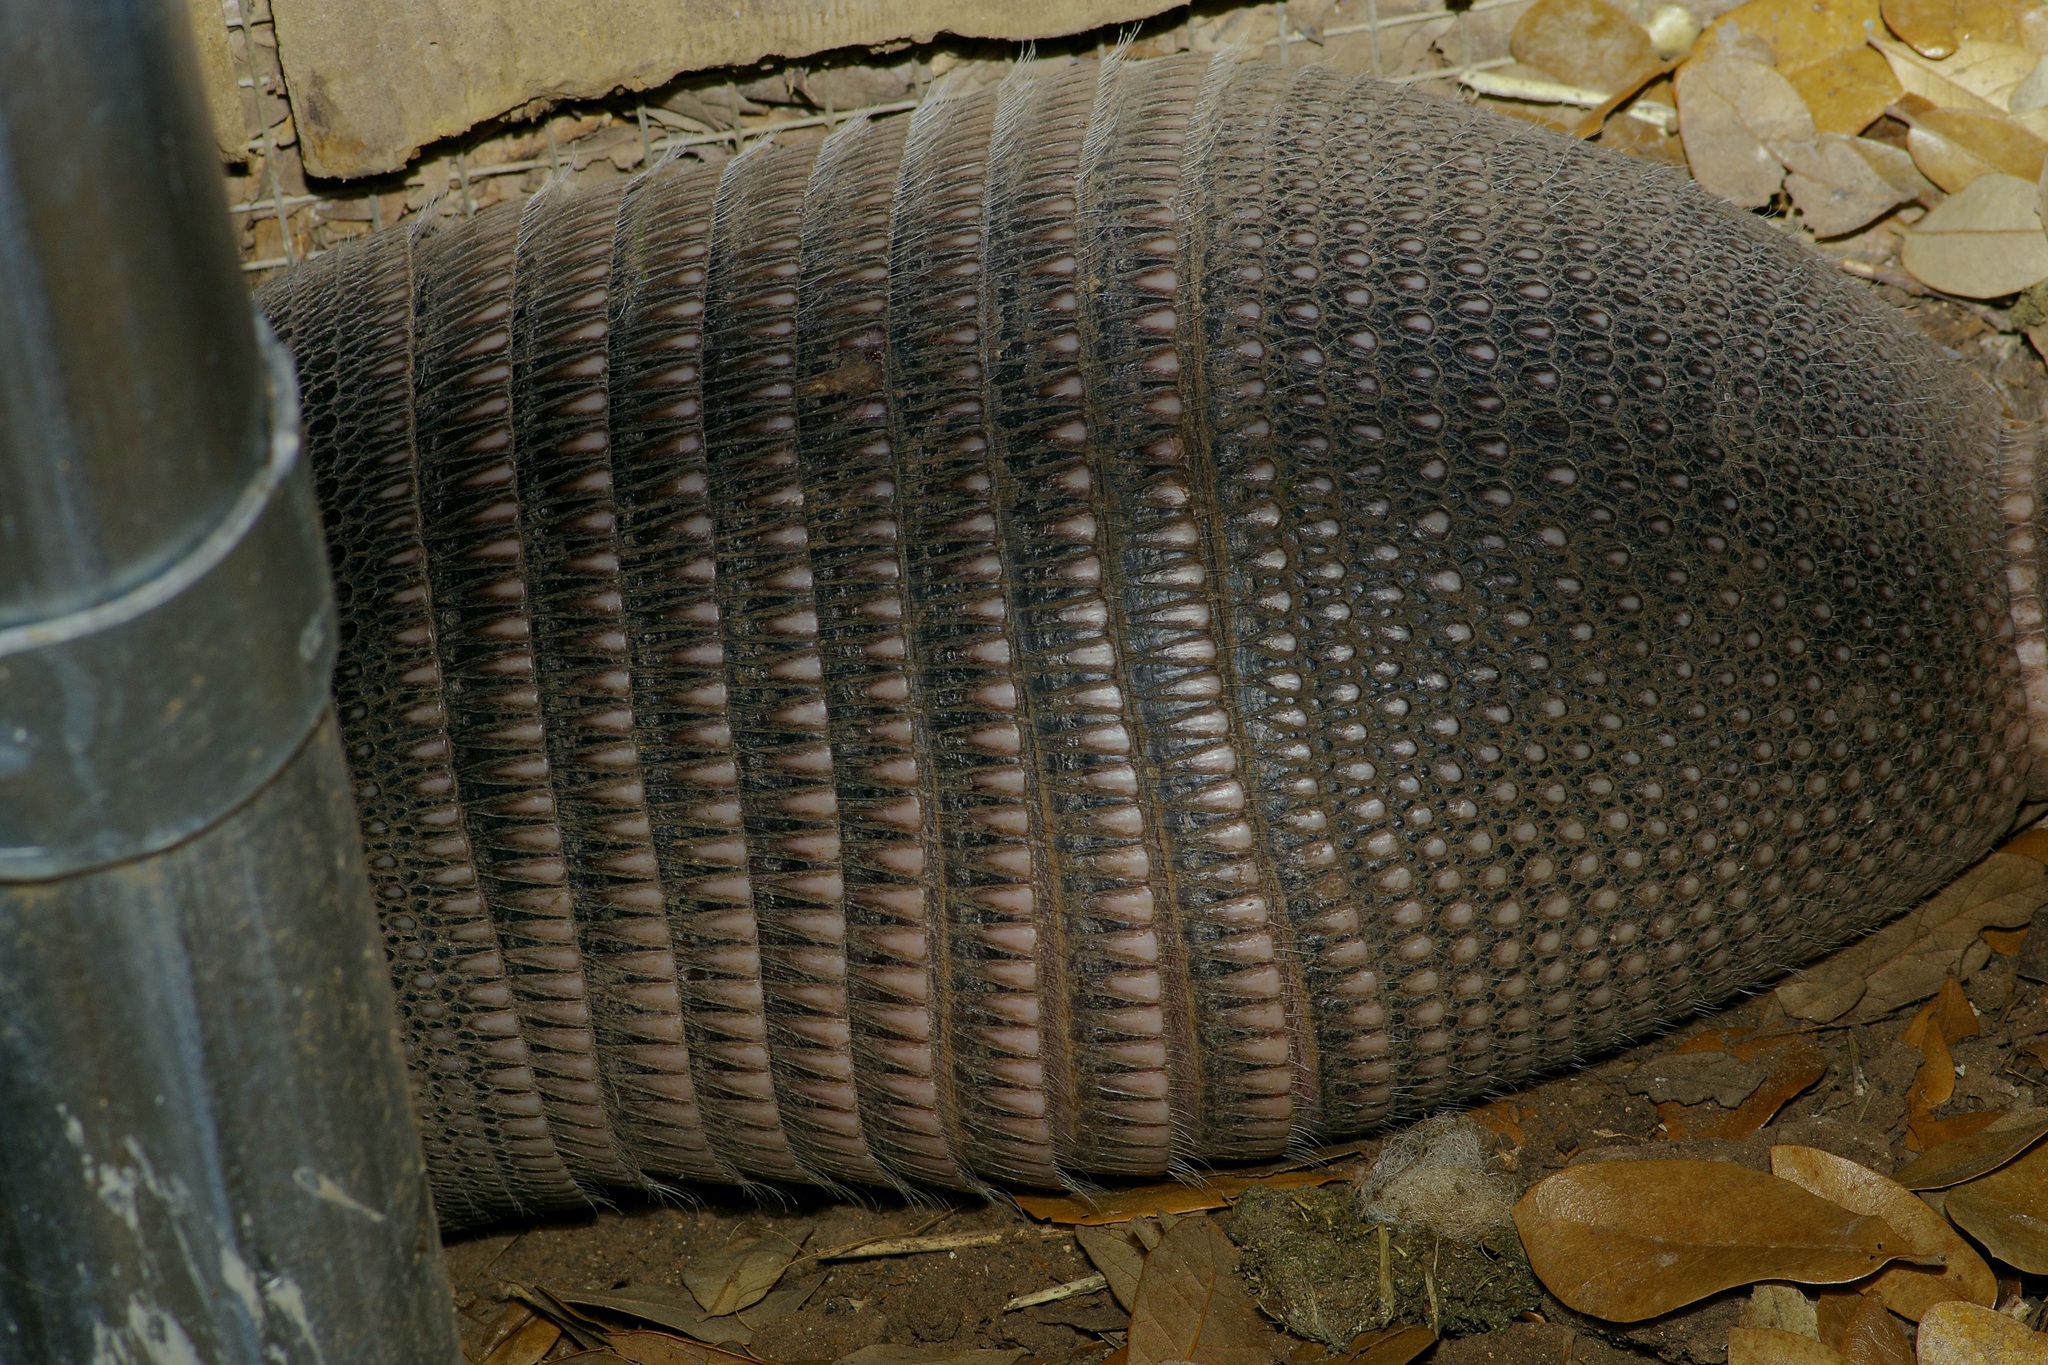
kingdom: Animalia
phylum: Chordata
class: Mammalia
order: Cingulata
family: Dasypodidae
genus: Dasypus
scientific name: Dasypus novemcinctus
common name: Nine-banded armadillo
